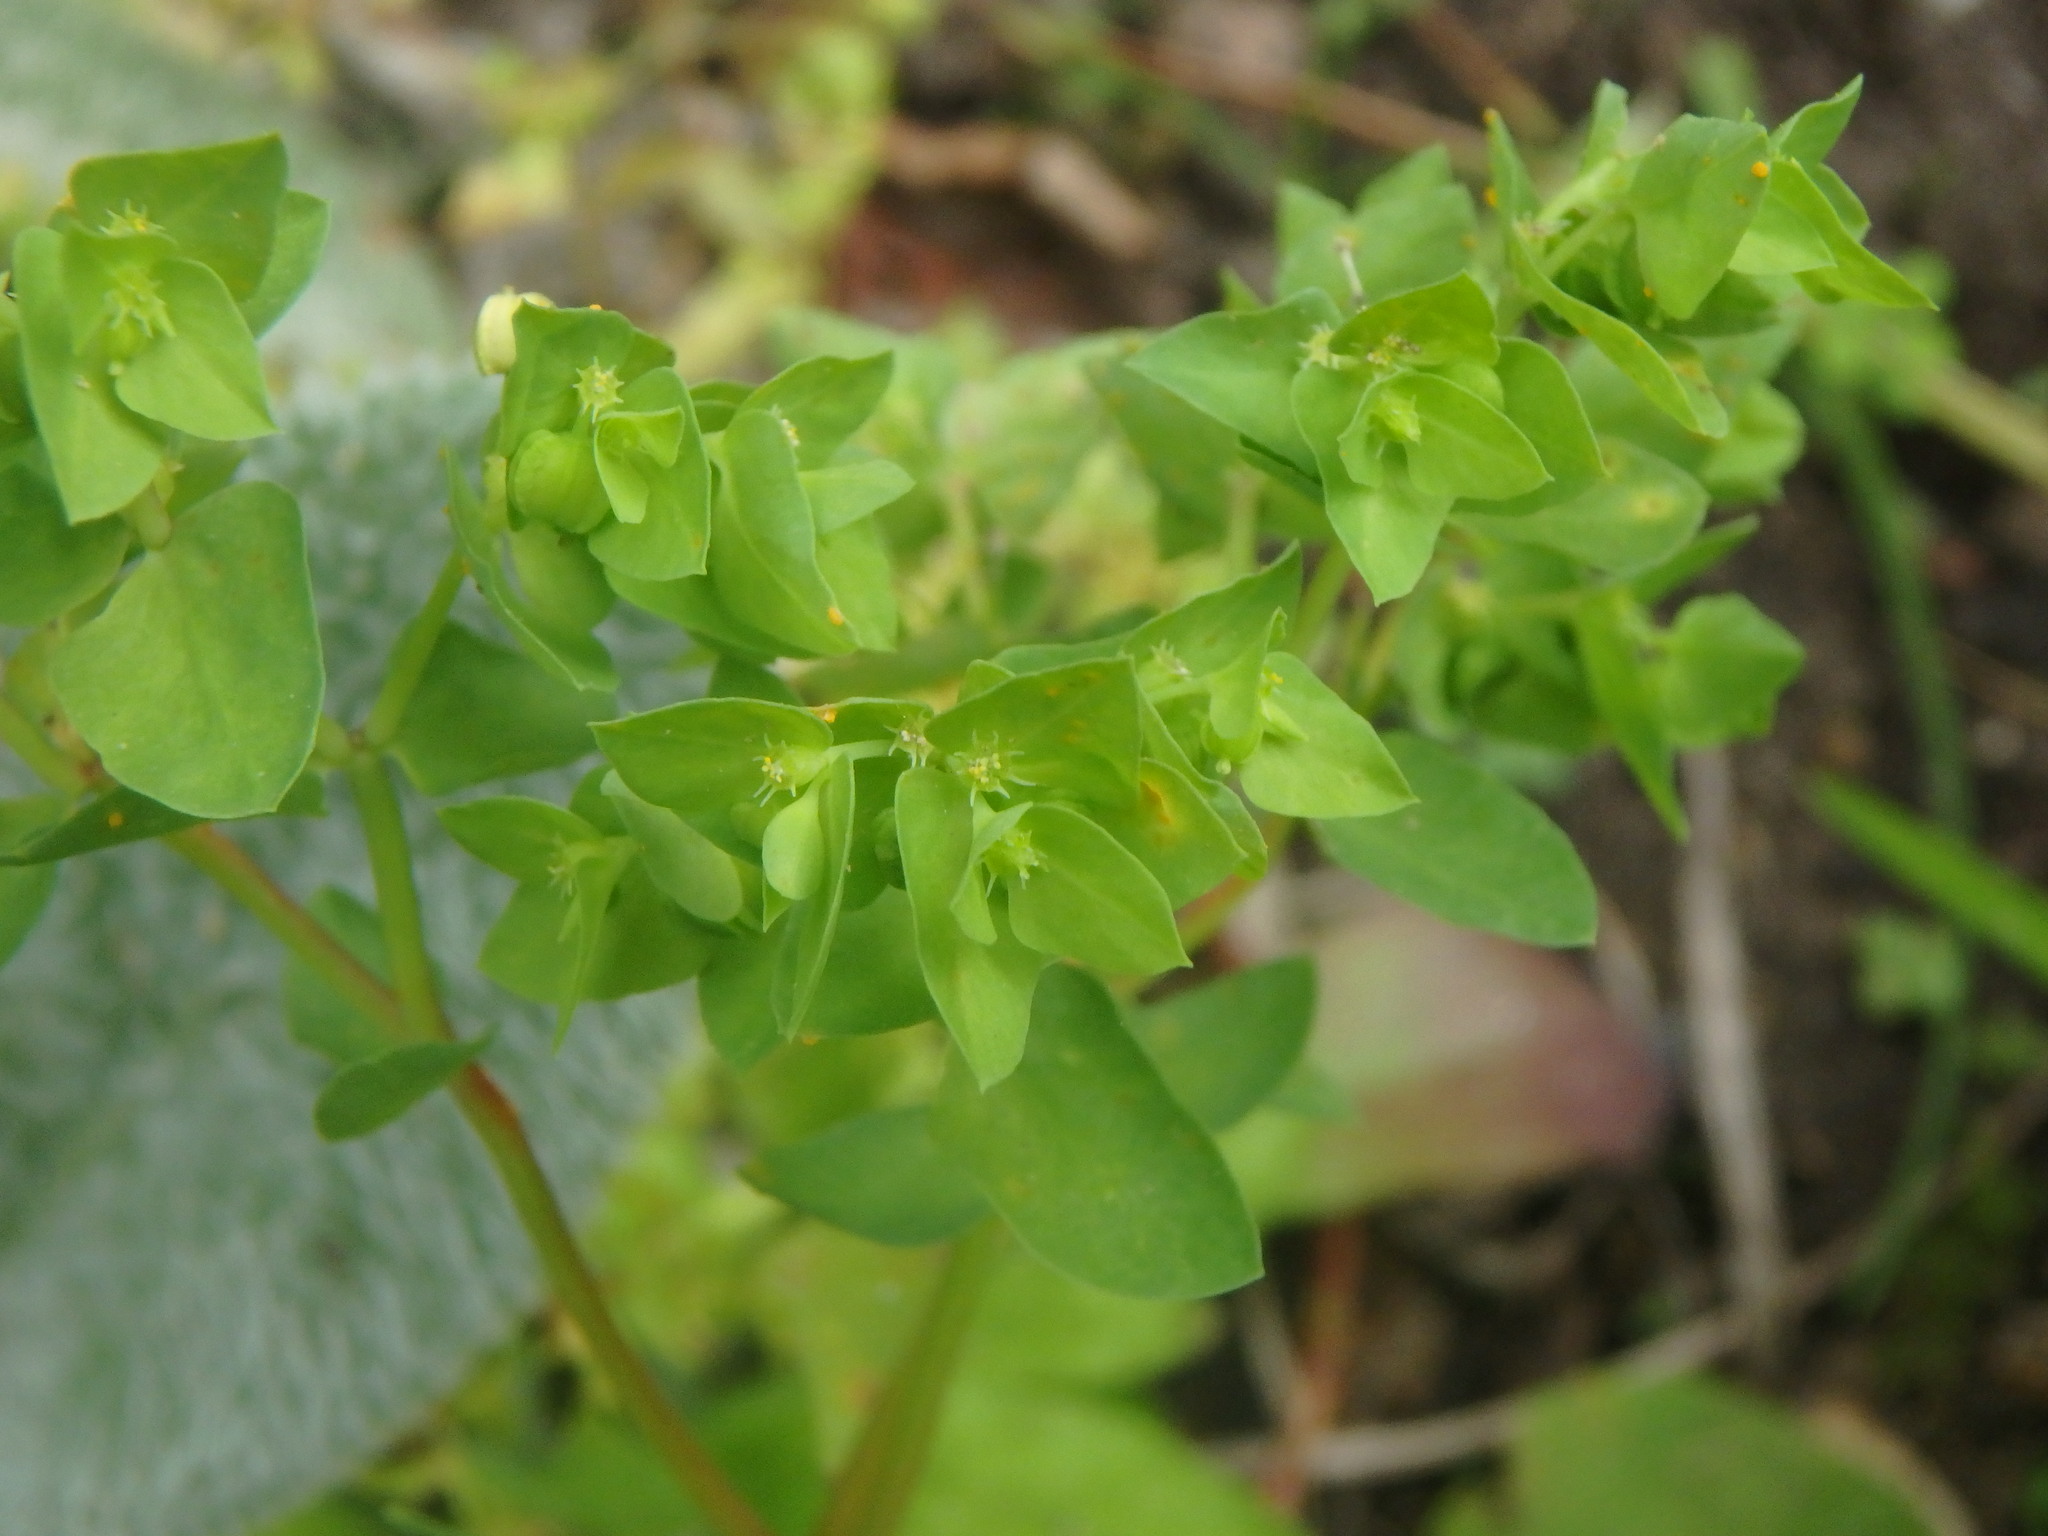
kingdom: Plantae
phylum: Tracheophyta
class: Magnoliopsida
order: Malpighiales
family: Euphorbiaceae
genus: Euphorbia
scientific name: Euphorbia peplus
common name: Petty spurge
